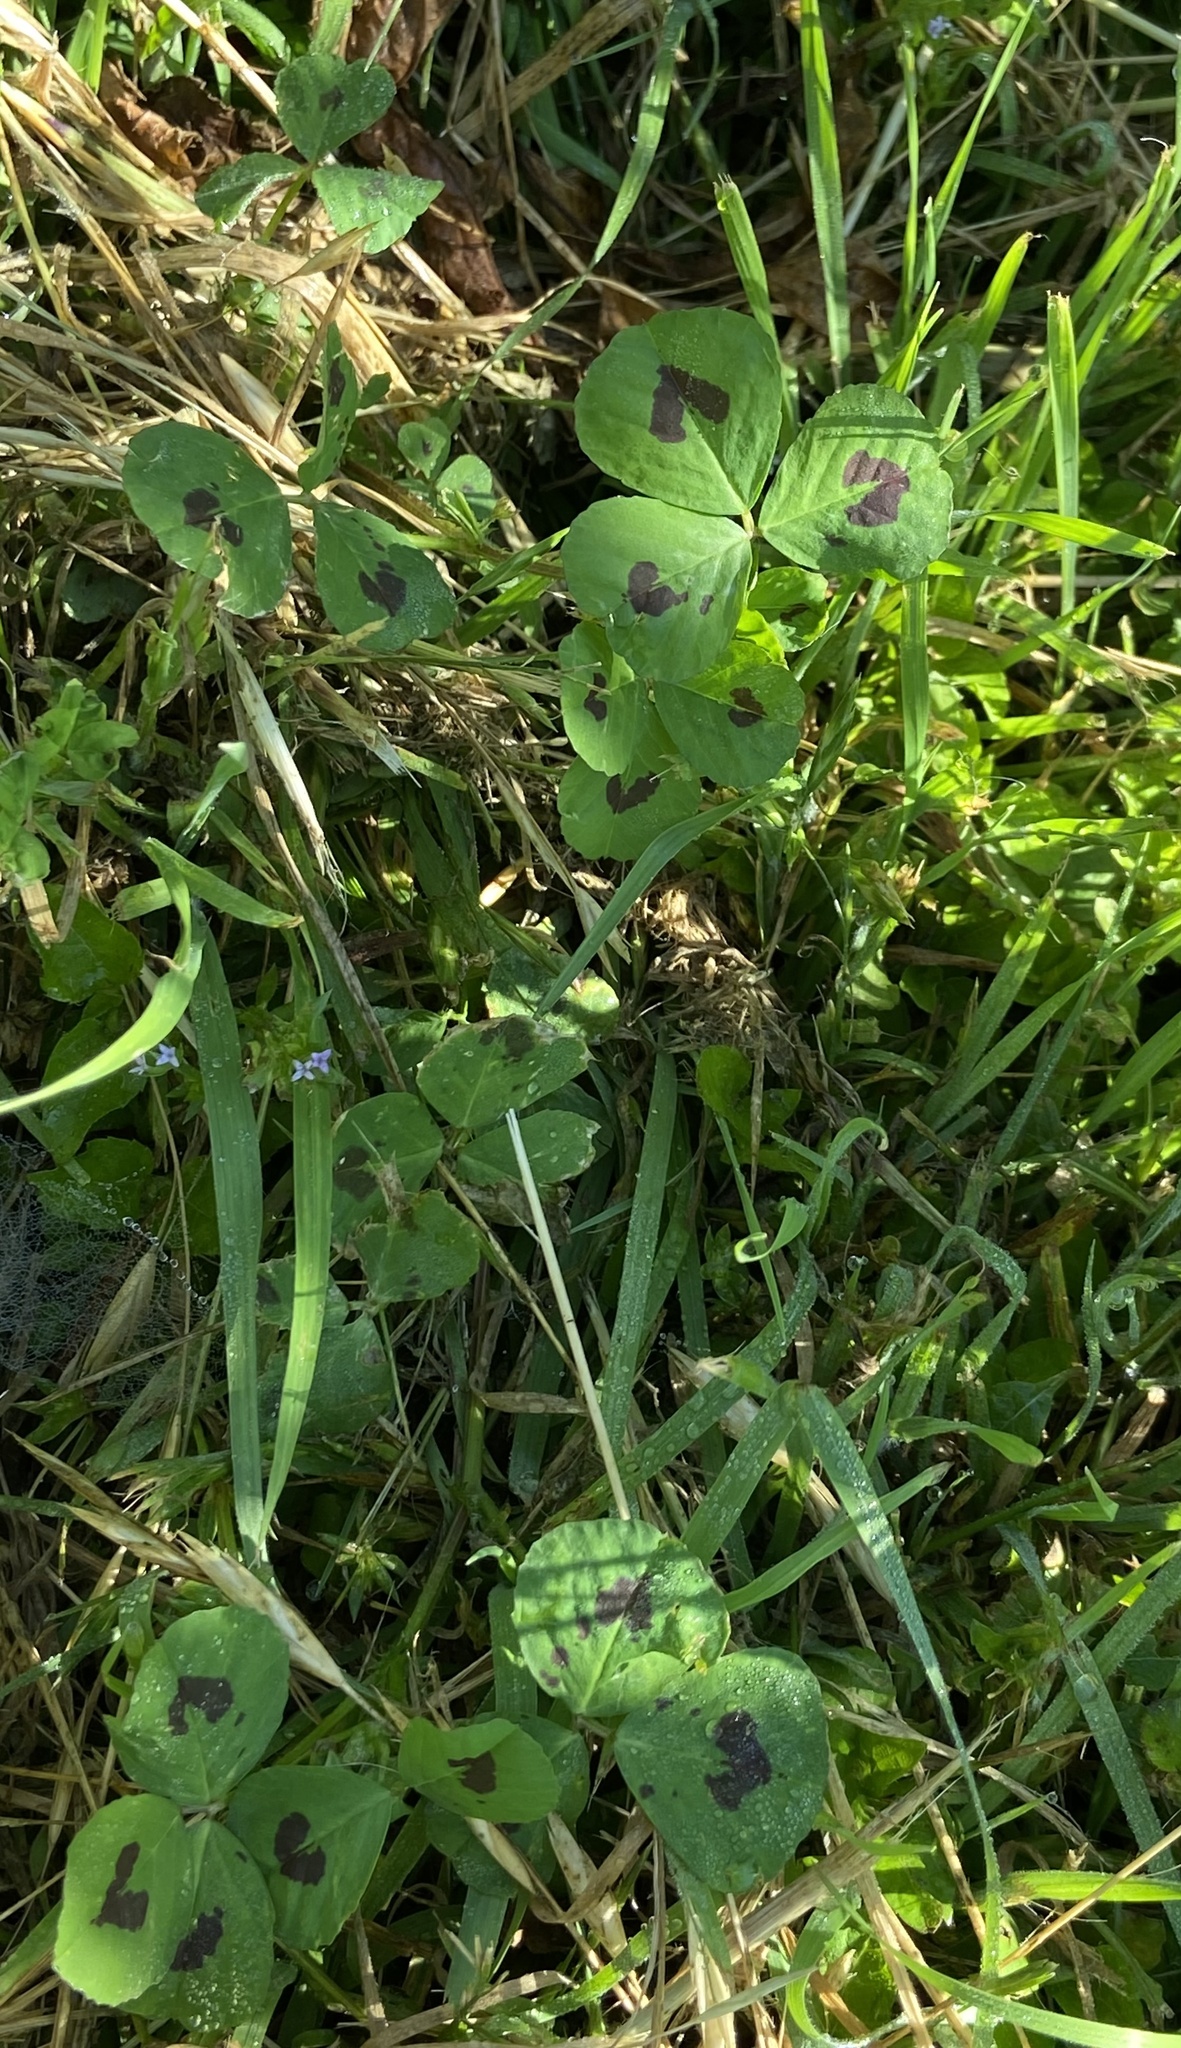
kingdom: Plantae
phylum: Tracheophyta
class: Magnoliopsida
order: Fabales
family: Fabaceae
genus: Medicago
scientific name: Medicago arabica
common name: Spotted medick
